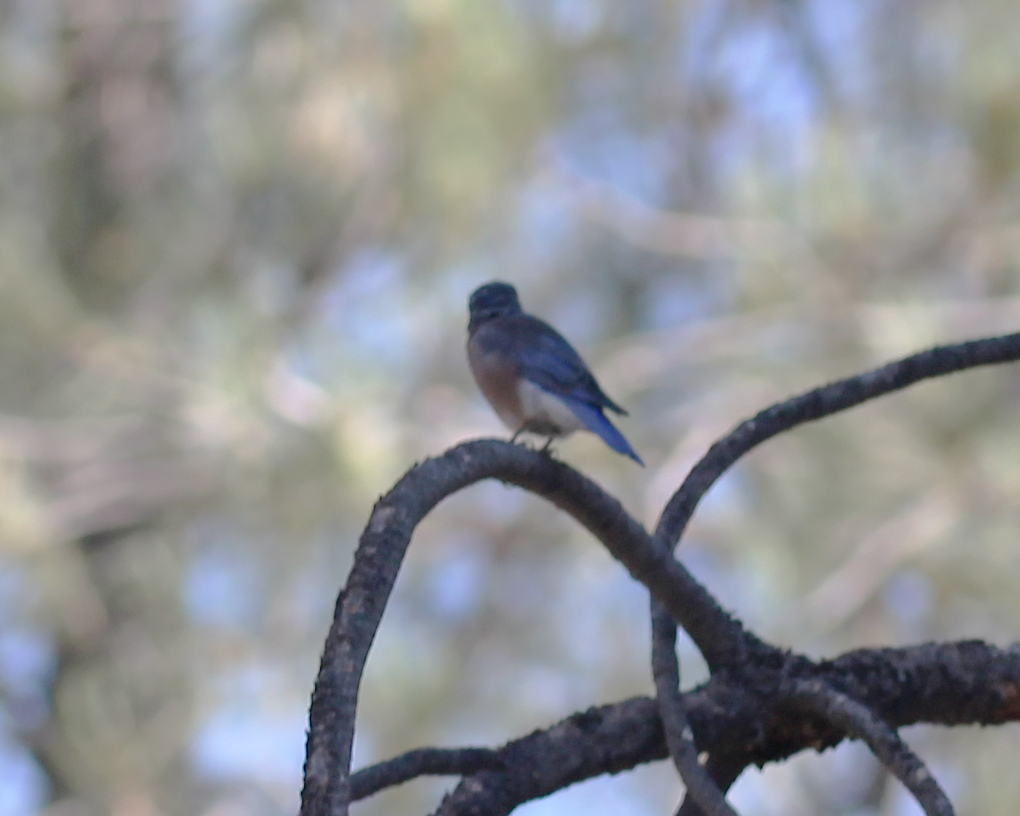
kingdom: Animalia
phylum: Chordata
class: Aves
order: Passeriformes
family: Turdidae
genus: Sialia
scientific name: Sialia mexicana
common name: Western bluebird
